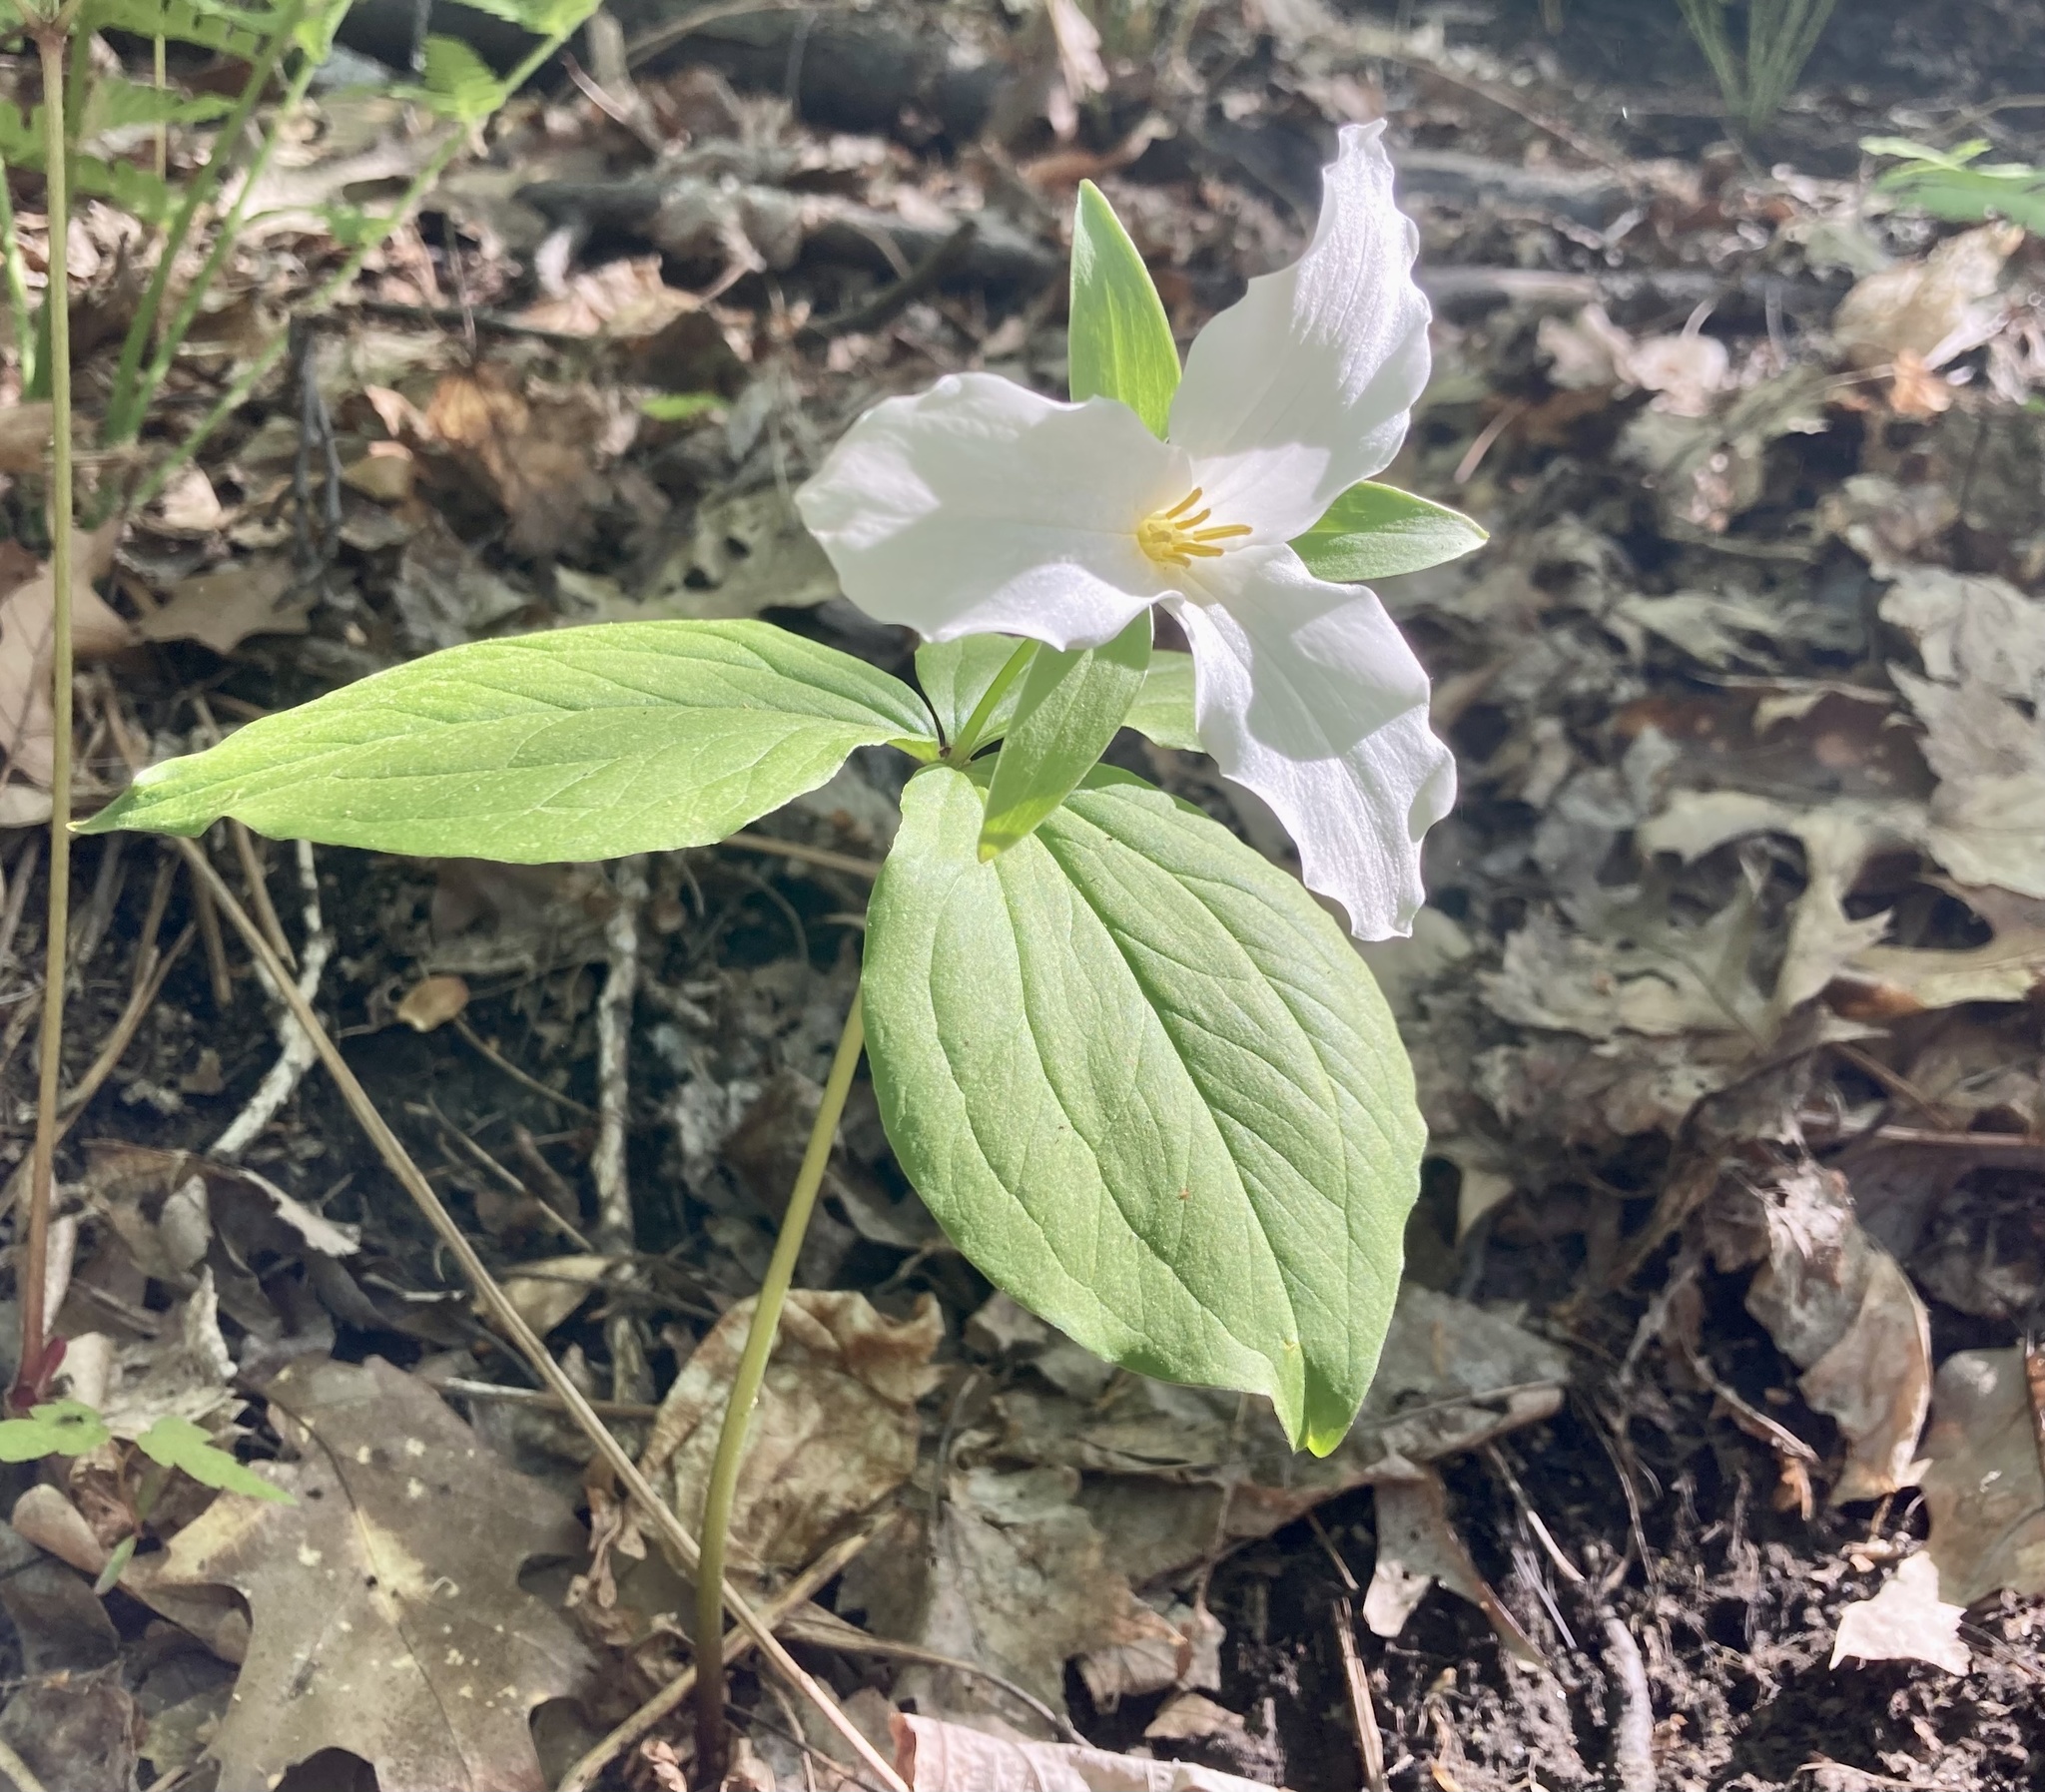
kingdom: Plantae
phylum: Tracheophyta
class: Liliopsida
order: Liliales
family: Melanthiaceae
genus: Trillium
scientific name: Trillium grandiflorum
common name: Great white trillium
